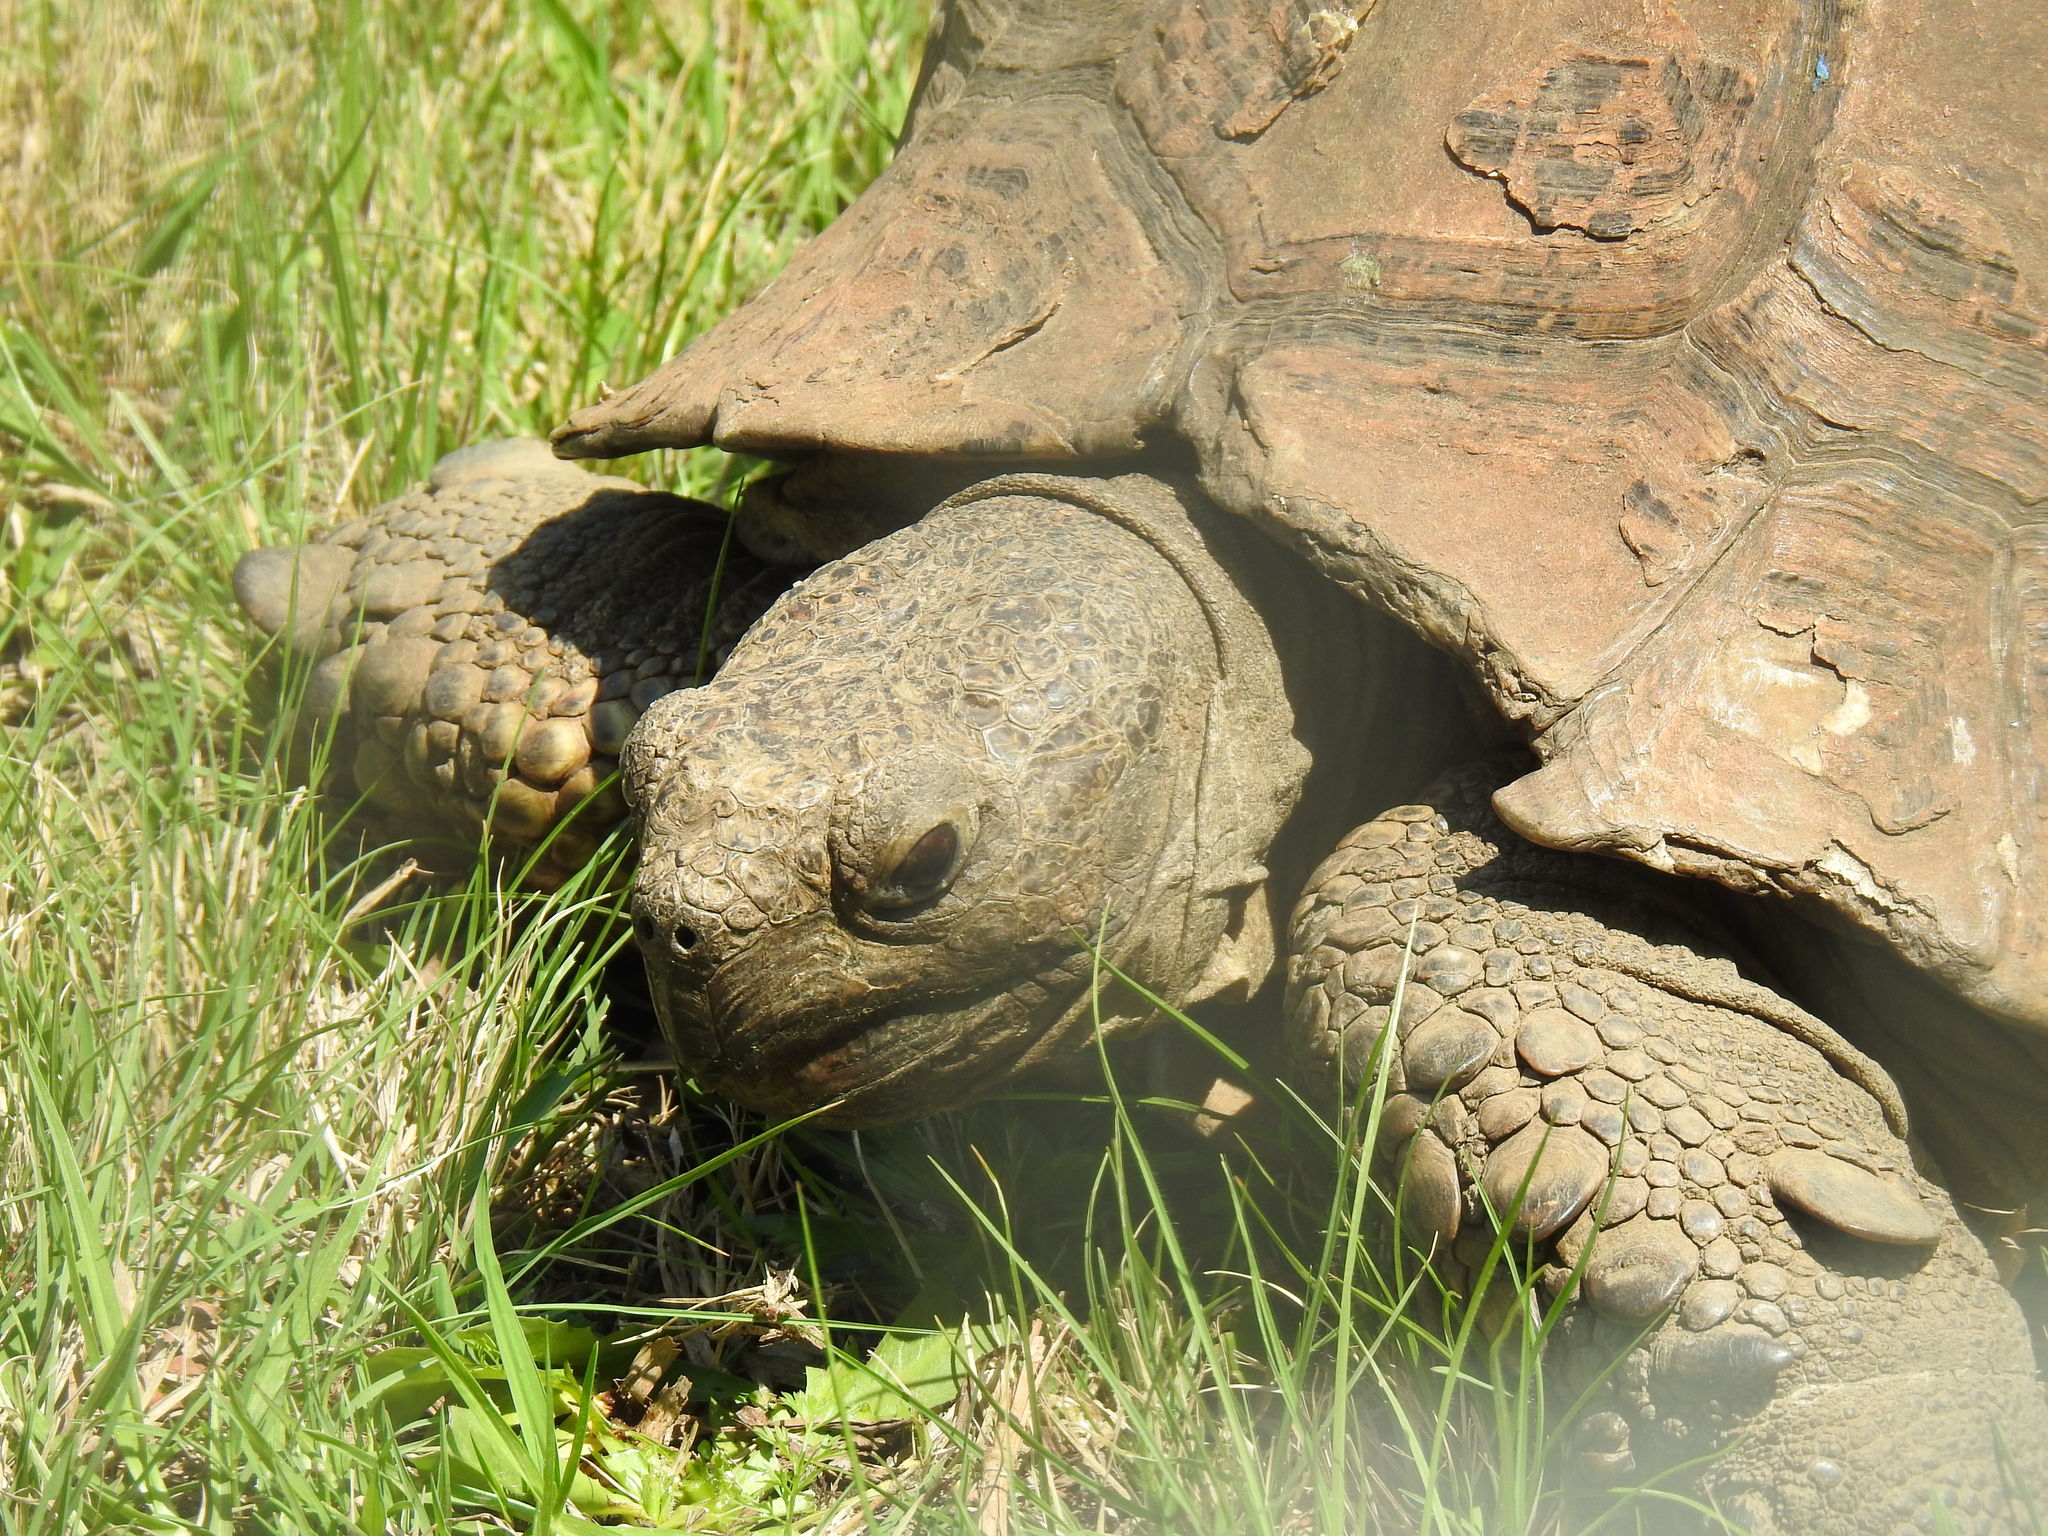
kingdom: Animalia
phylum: Chordata
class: Testudines
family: Testudinidae
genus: Stigmochelys
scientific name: Stigmochelys pardalis
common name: Leopard tortoise
